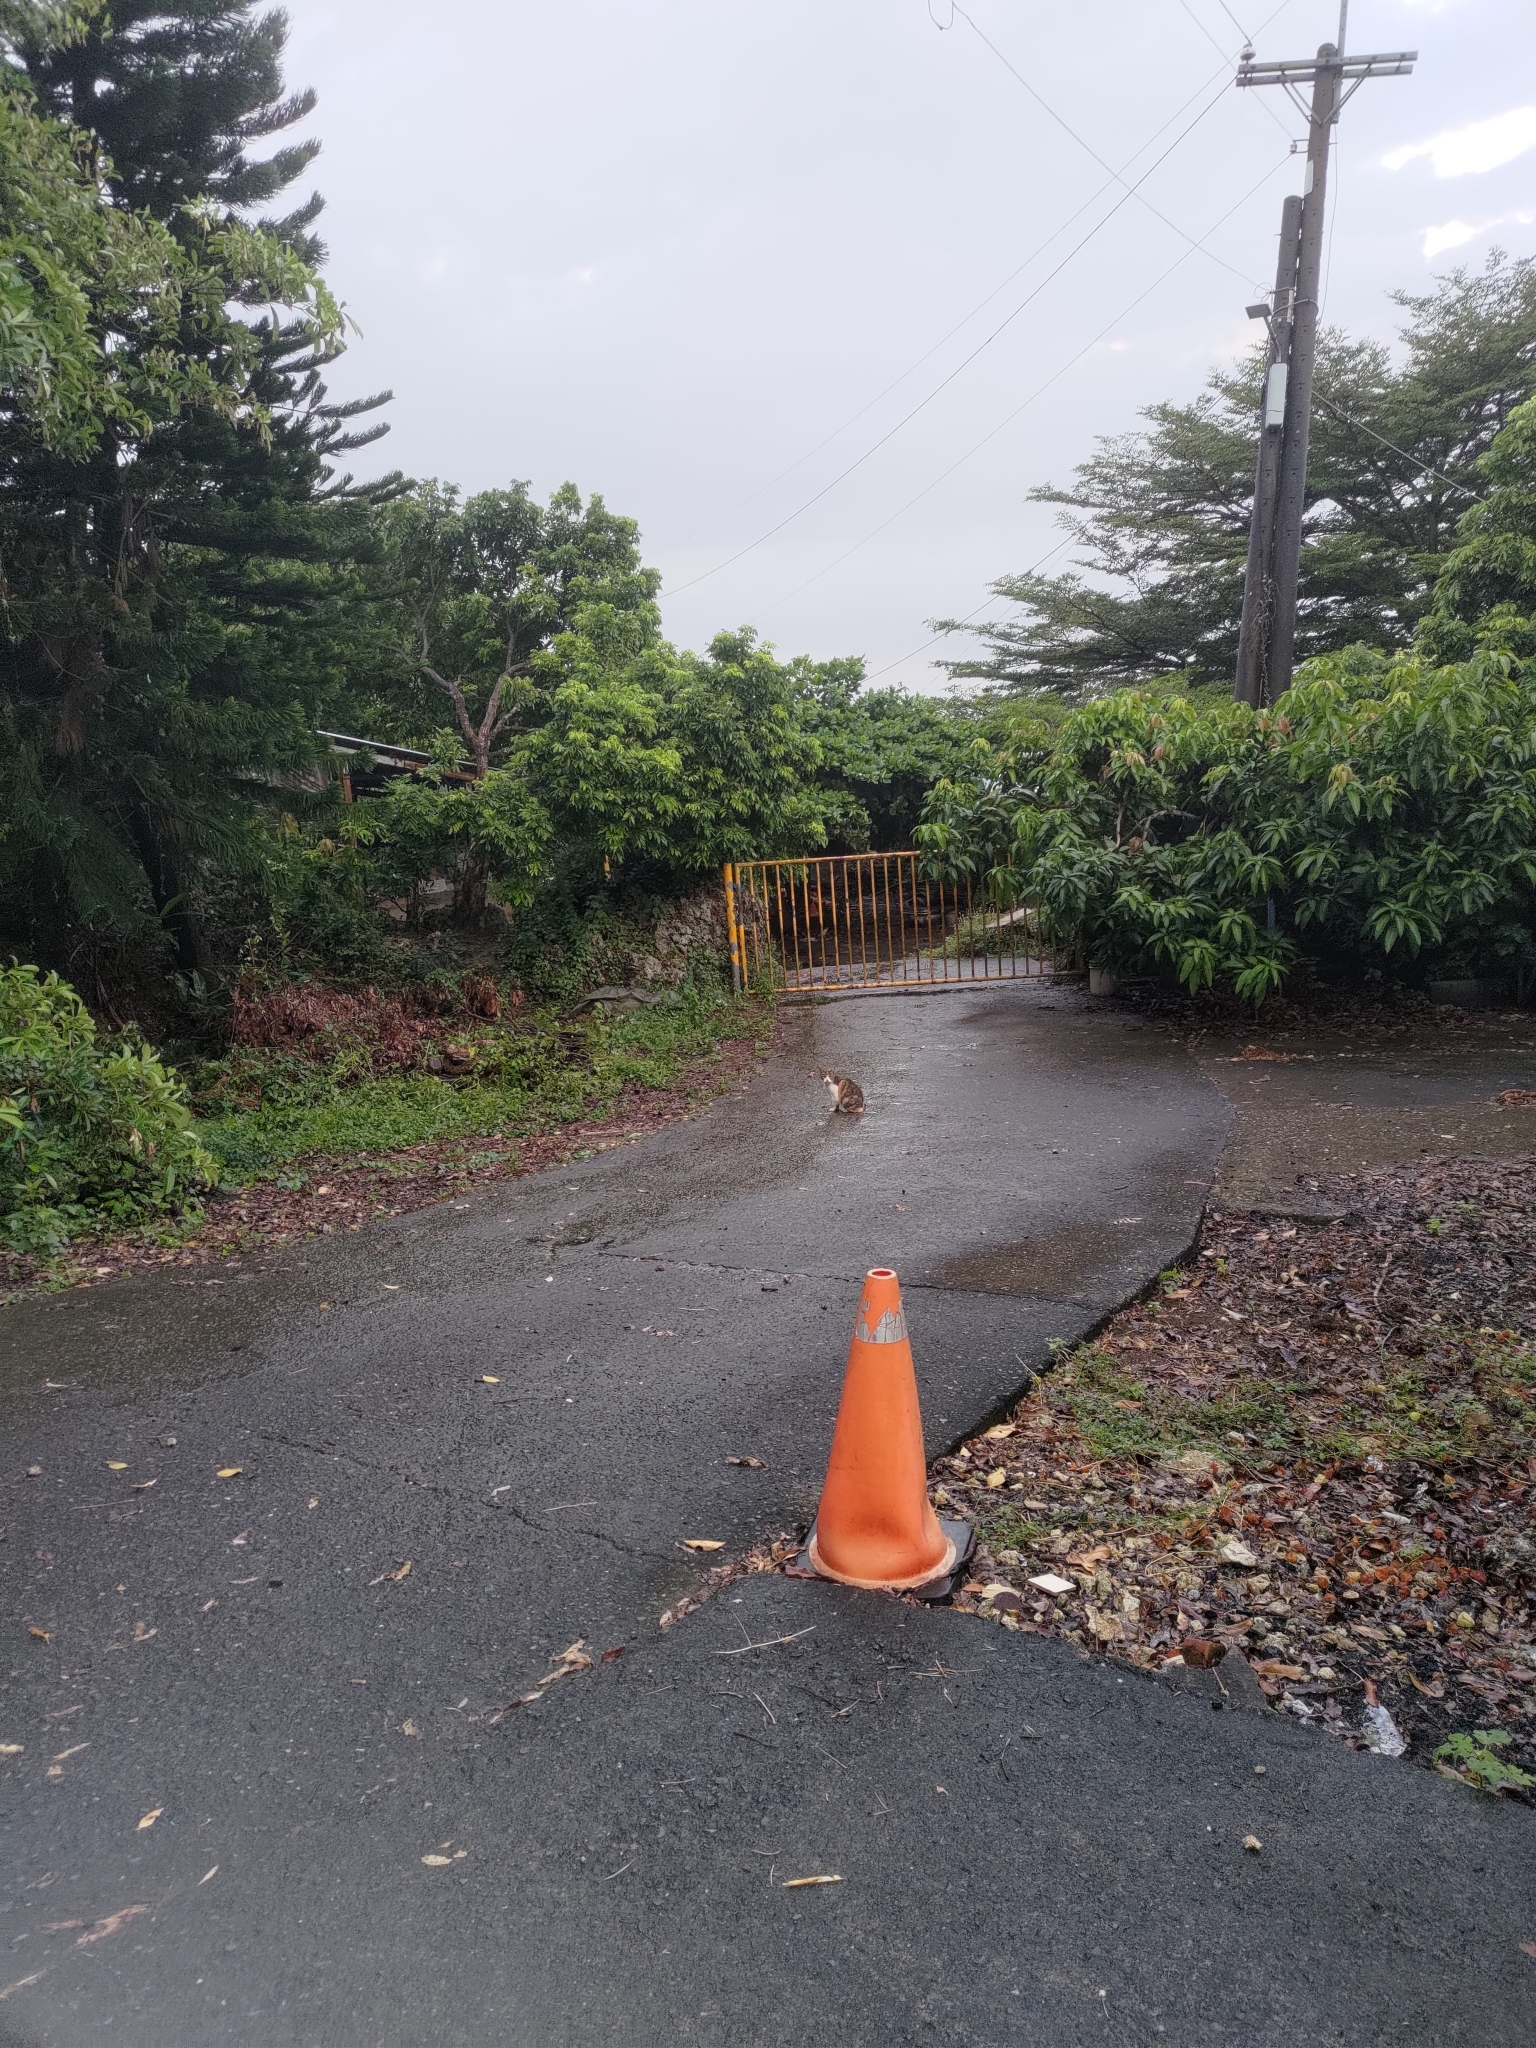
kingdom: Animalia
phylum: Chordata
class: Mammalia
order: Carnivora
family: Felidae
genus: Felis
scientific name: Felis catus
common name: Domestic cat
